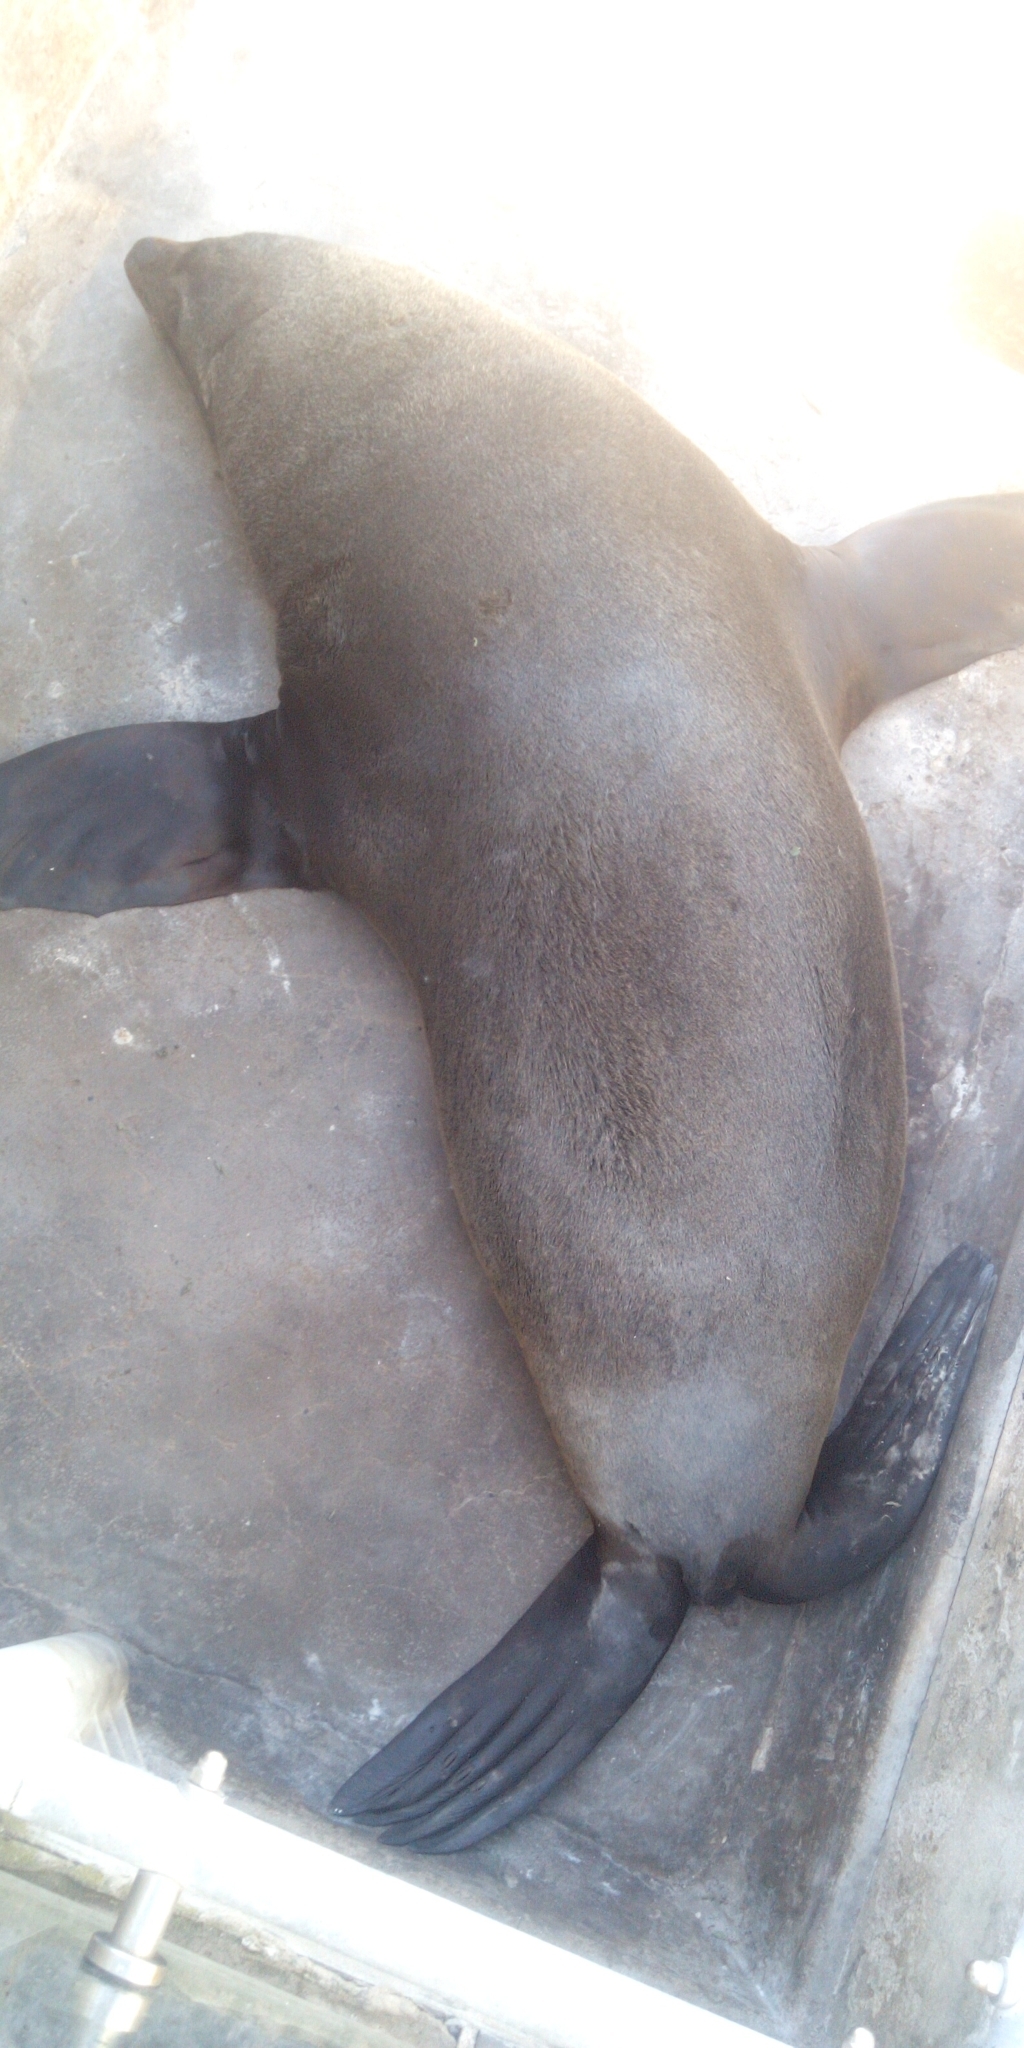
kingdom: Animalia
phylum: Chordata
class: Mammalia
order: Carnivora
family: Otariidae
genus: Arctocephalus
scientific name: Arctocephalus pusillus
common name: Brown fur seal
